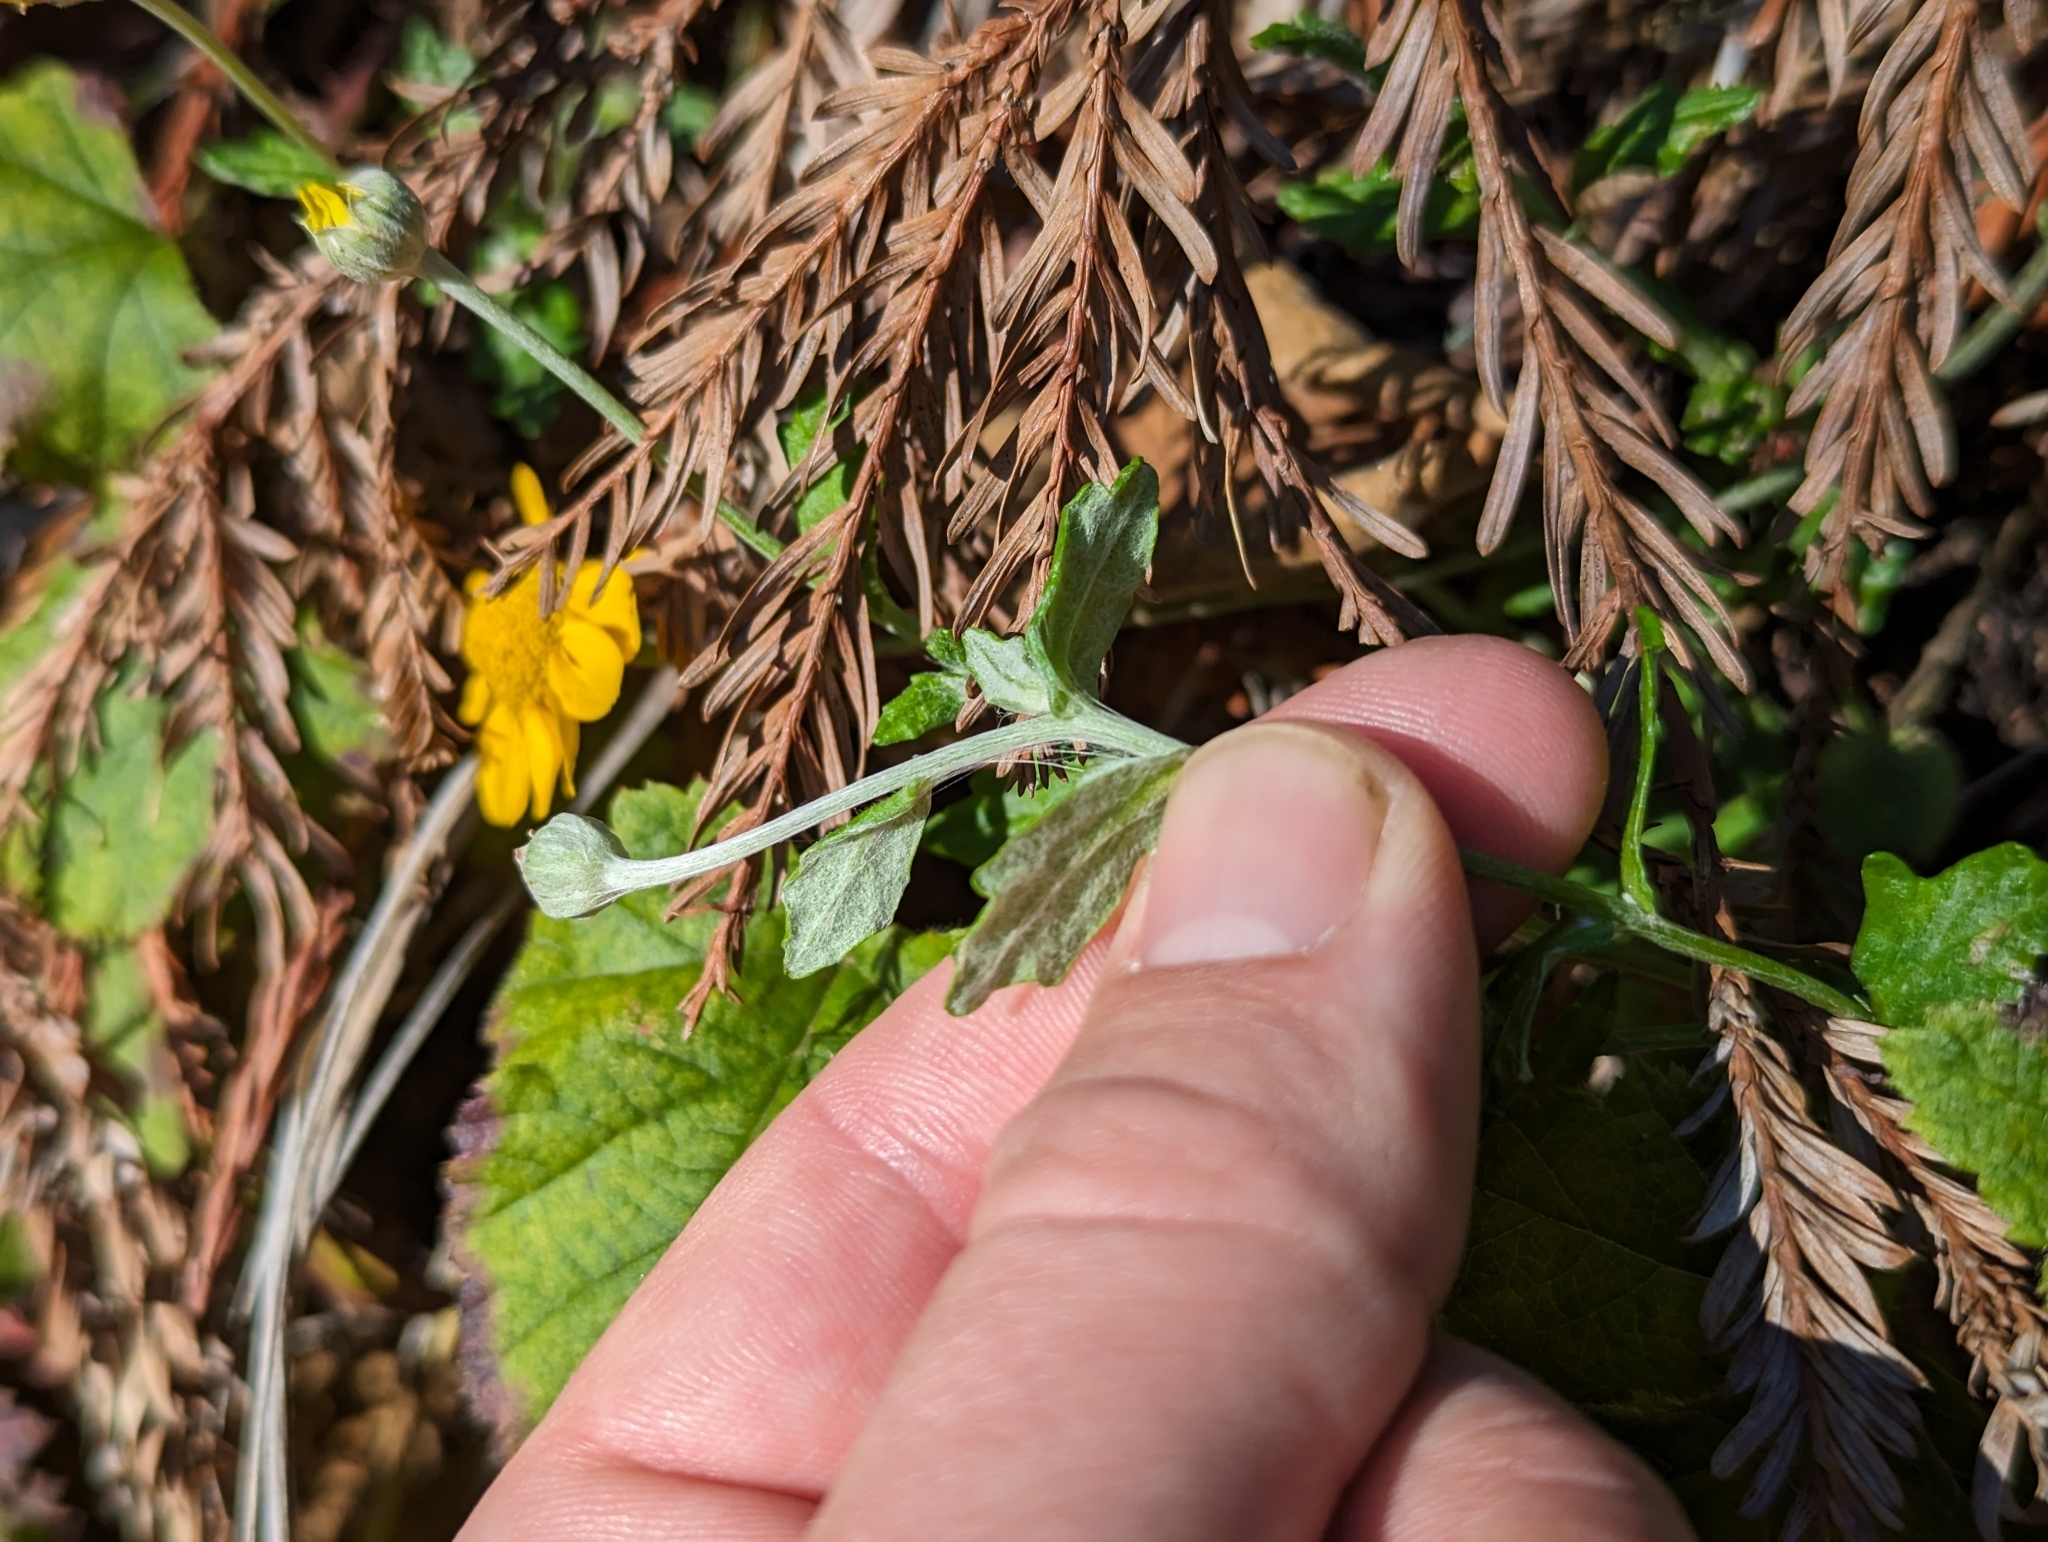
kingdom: Plantae
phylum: Tracheophyta
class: Magnoliopsida
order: Asterales
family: Asteraceae
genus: Eriophyllum
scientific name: Eriophyllum lanatum
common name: Common woolly-sunflower
